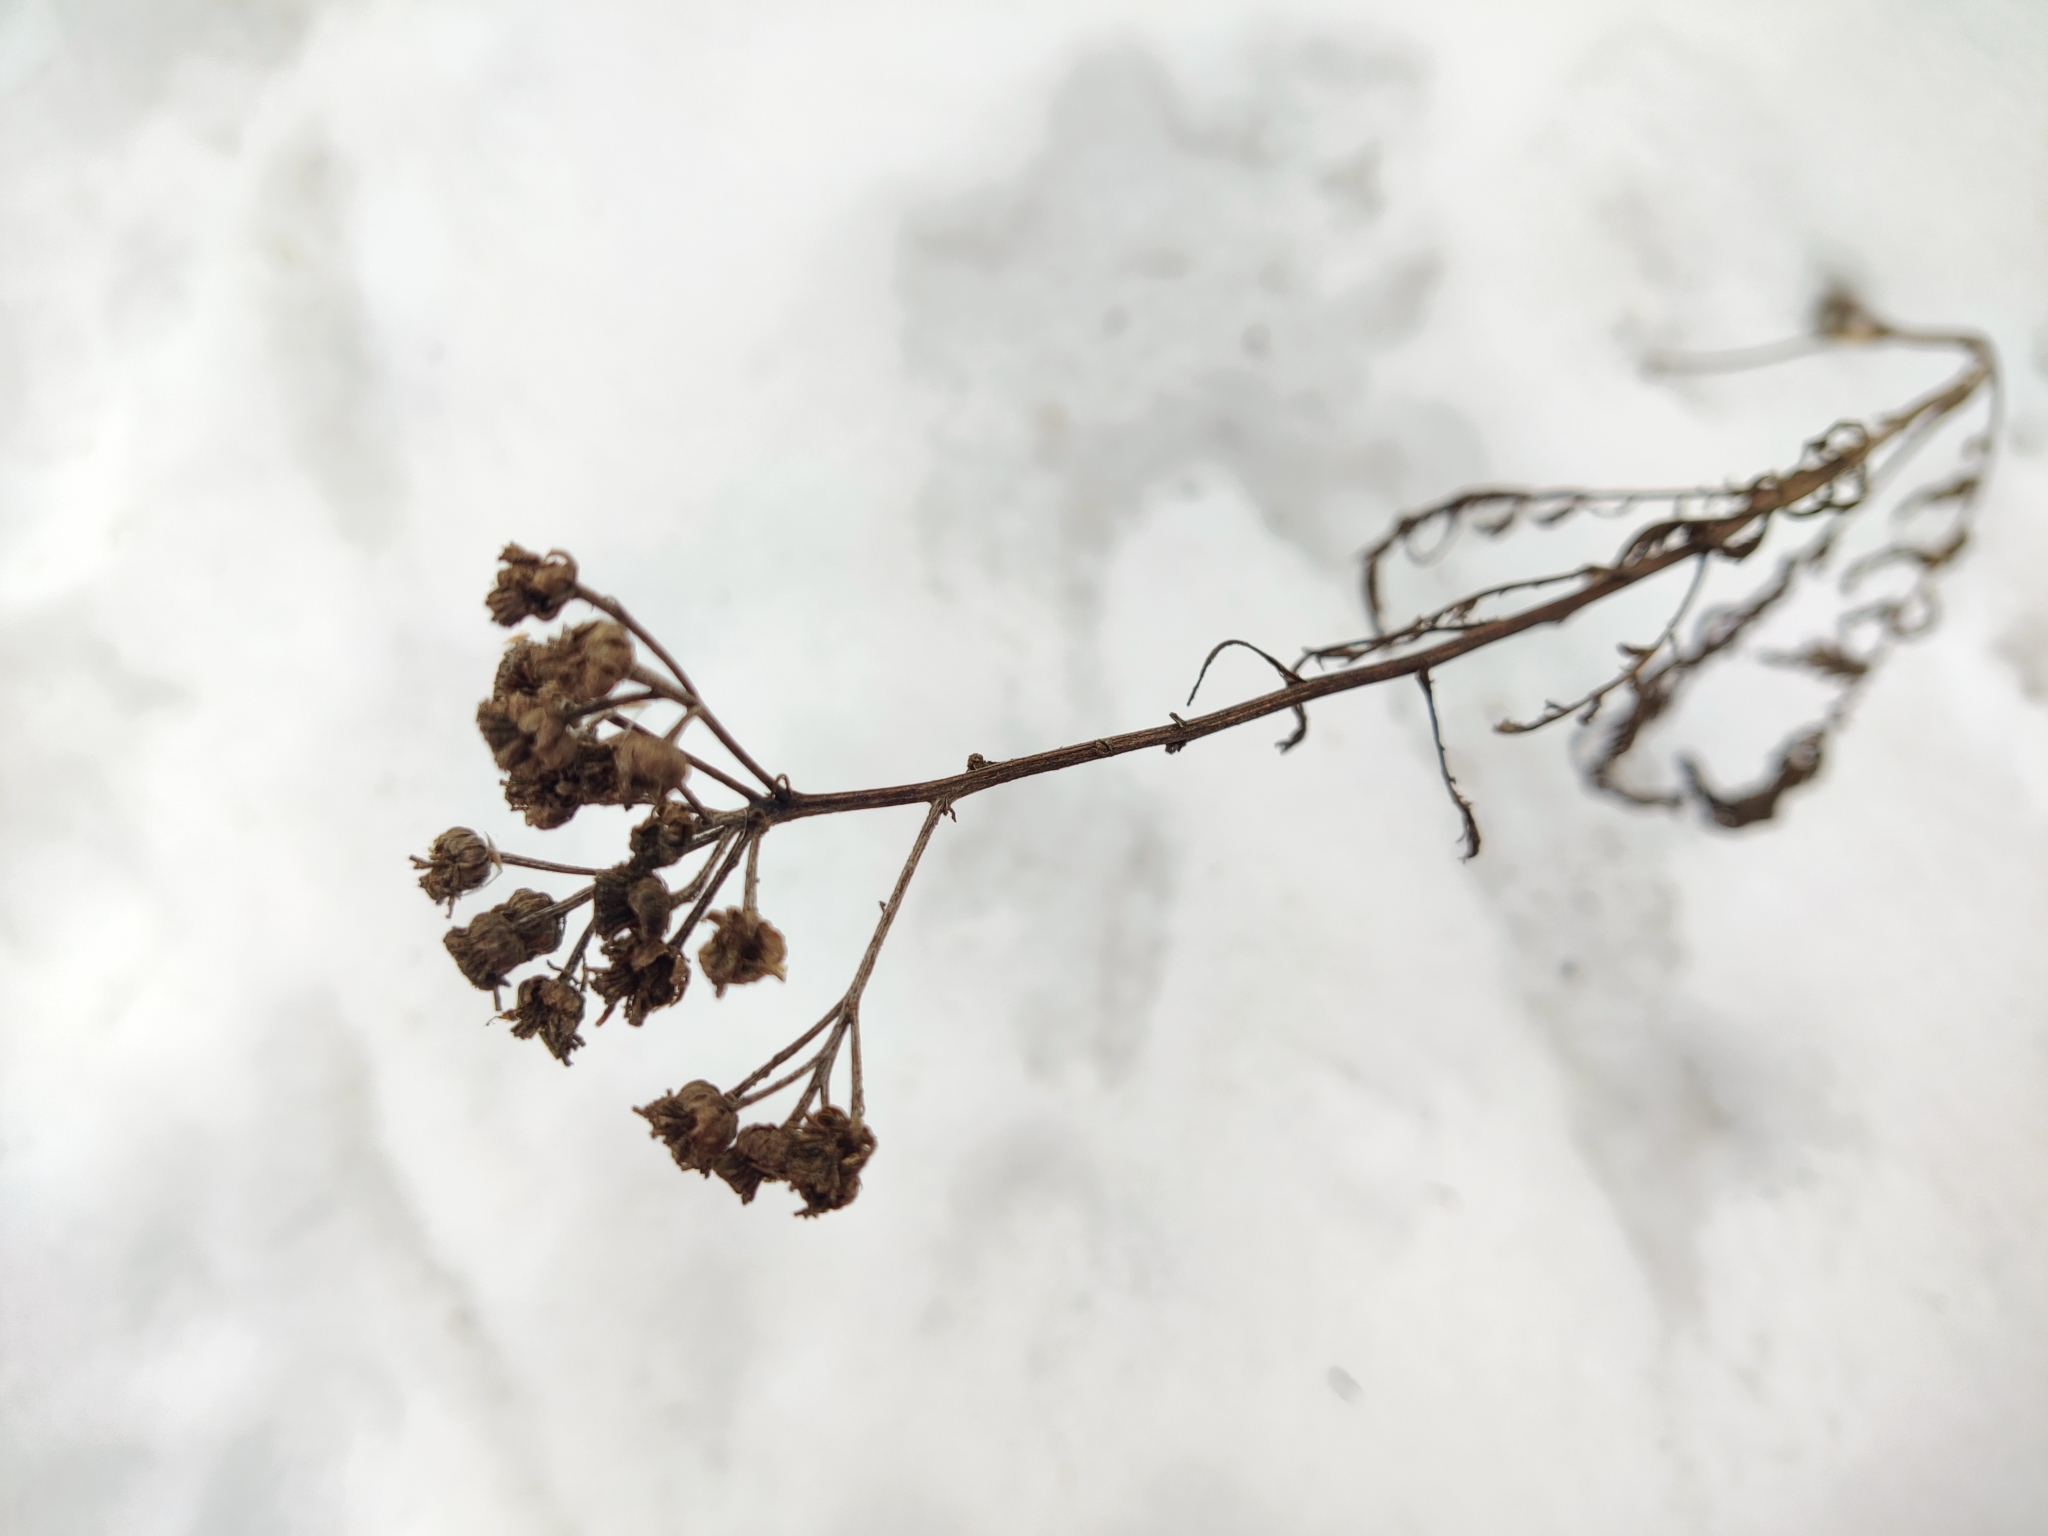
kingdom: Plantae
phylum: Tracheophyta
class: Magnoliopsida
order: Asterales
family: Asteraceae
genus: Tanacetum
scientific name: Tanacetum vulgare
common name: Common tansy
